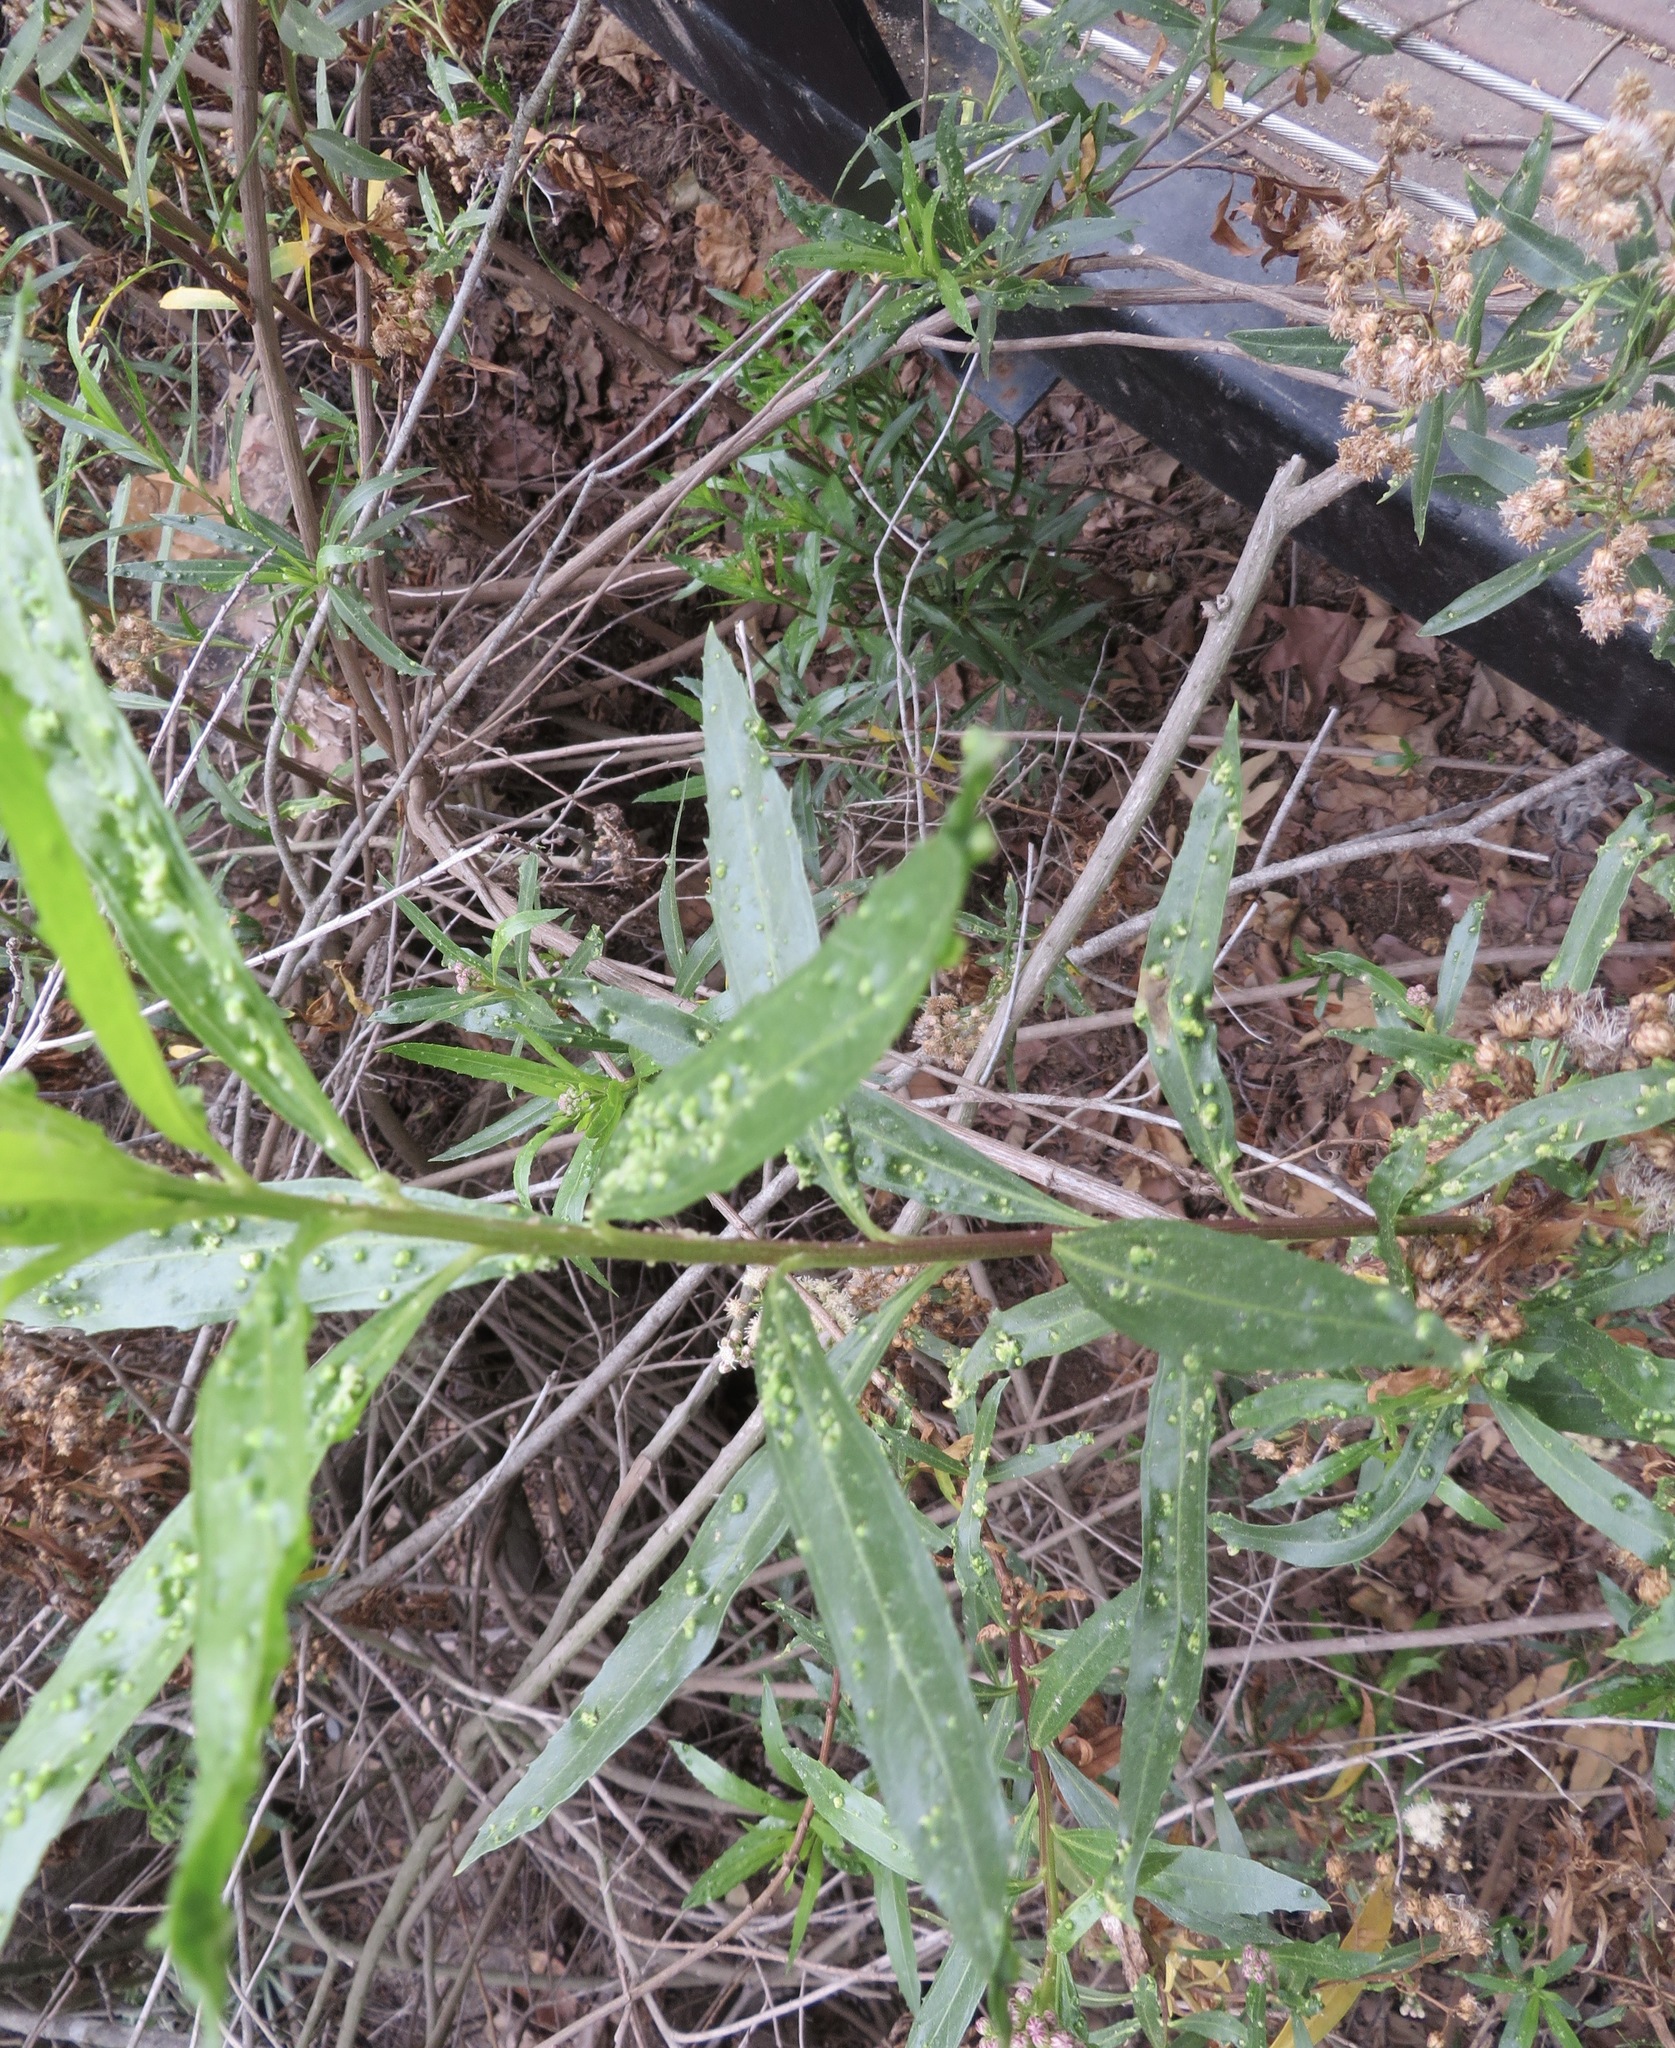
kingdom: Animalia
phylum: Arthropoda
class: Arachnida
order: Trombidiformes
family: Eriophyidae
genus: Aceria
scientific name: Aceria
